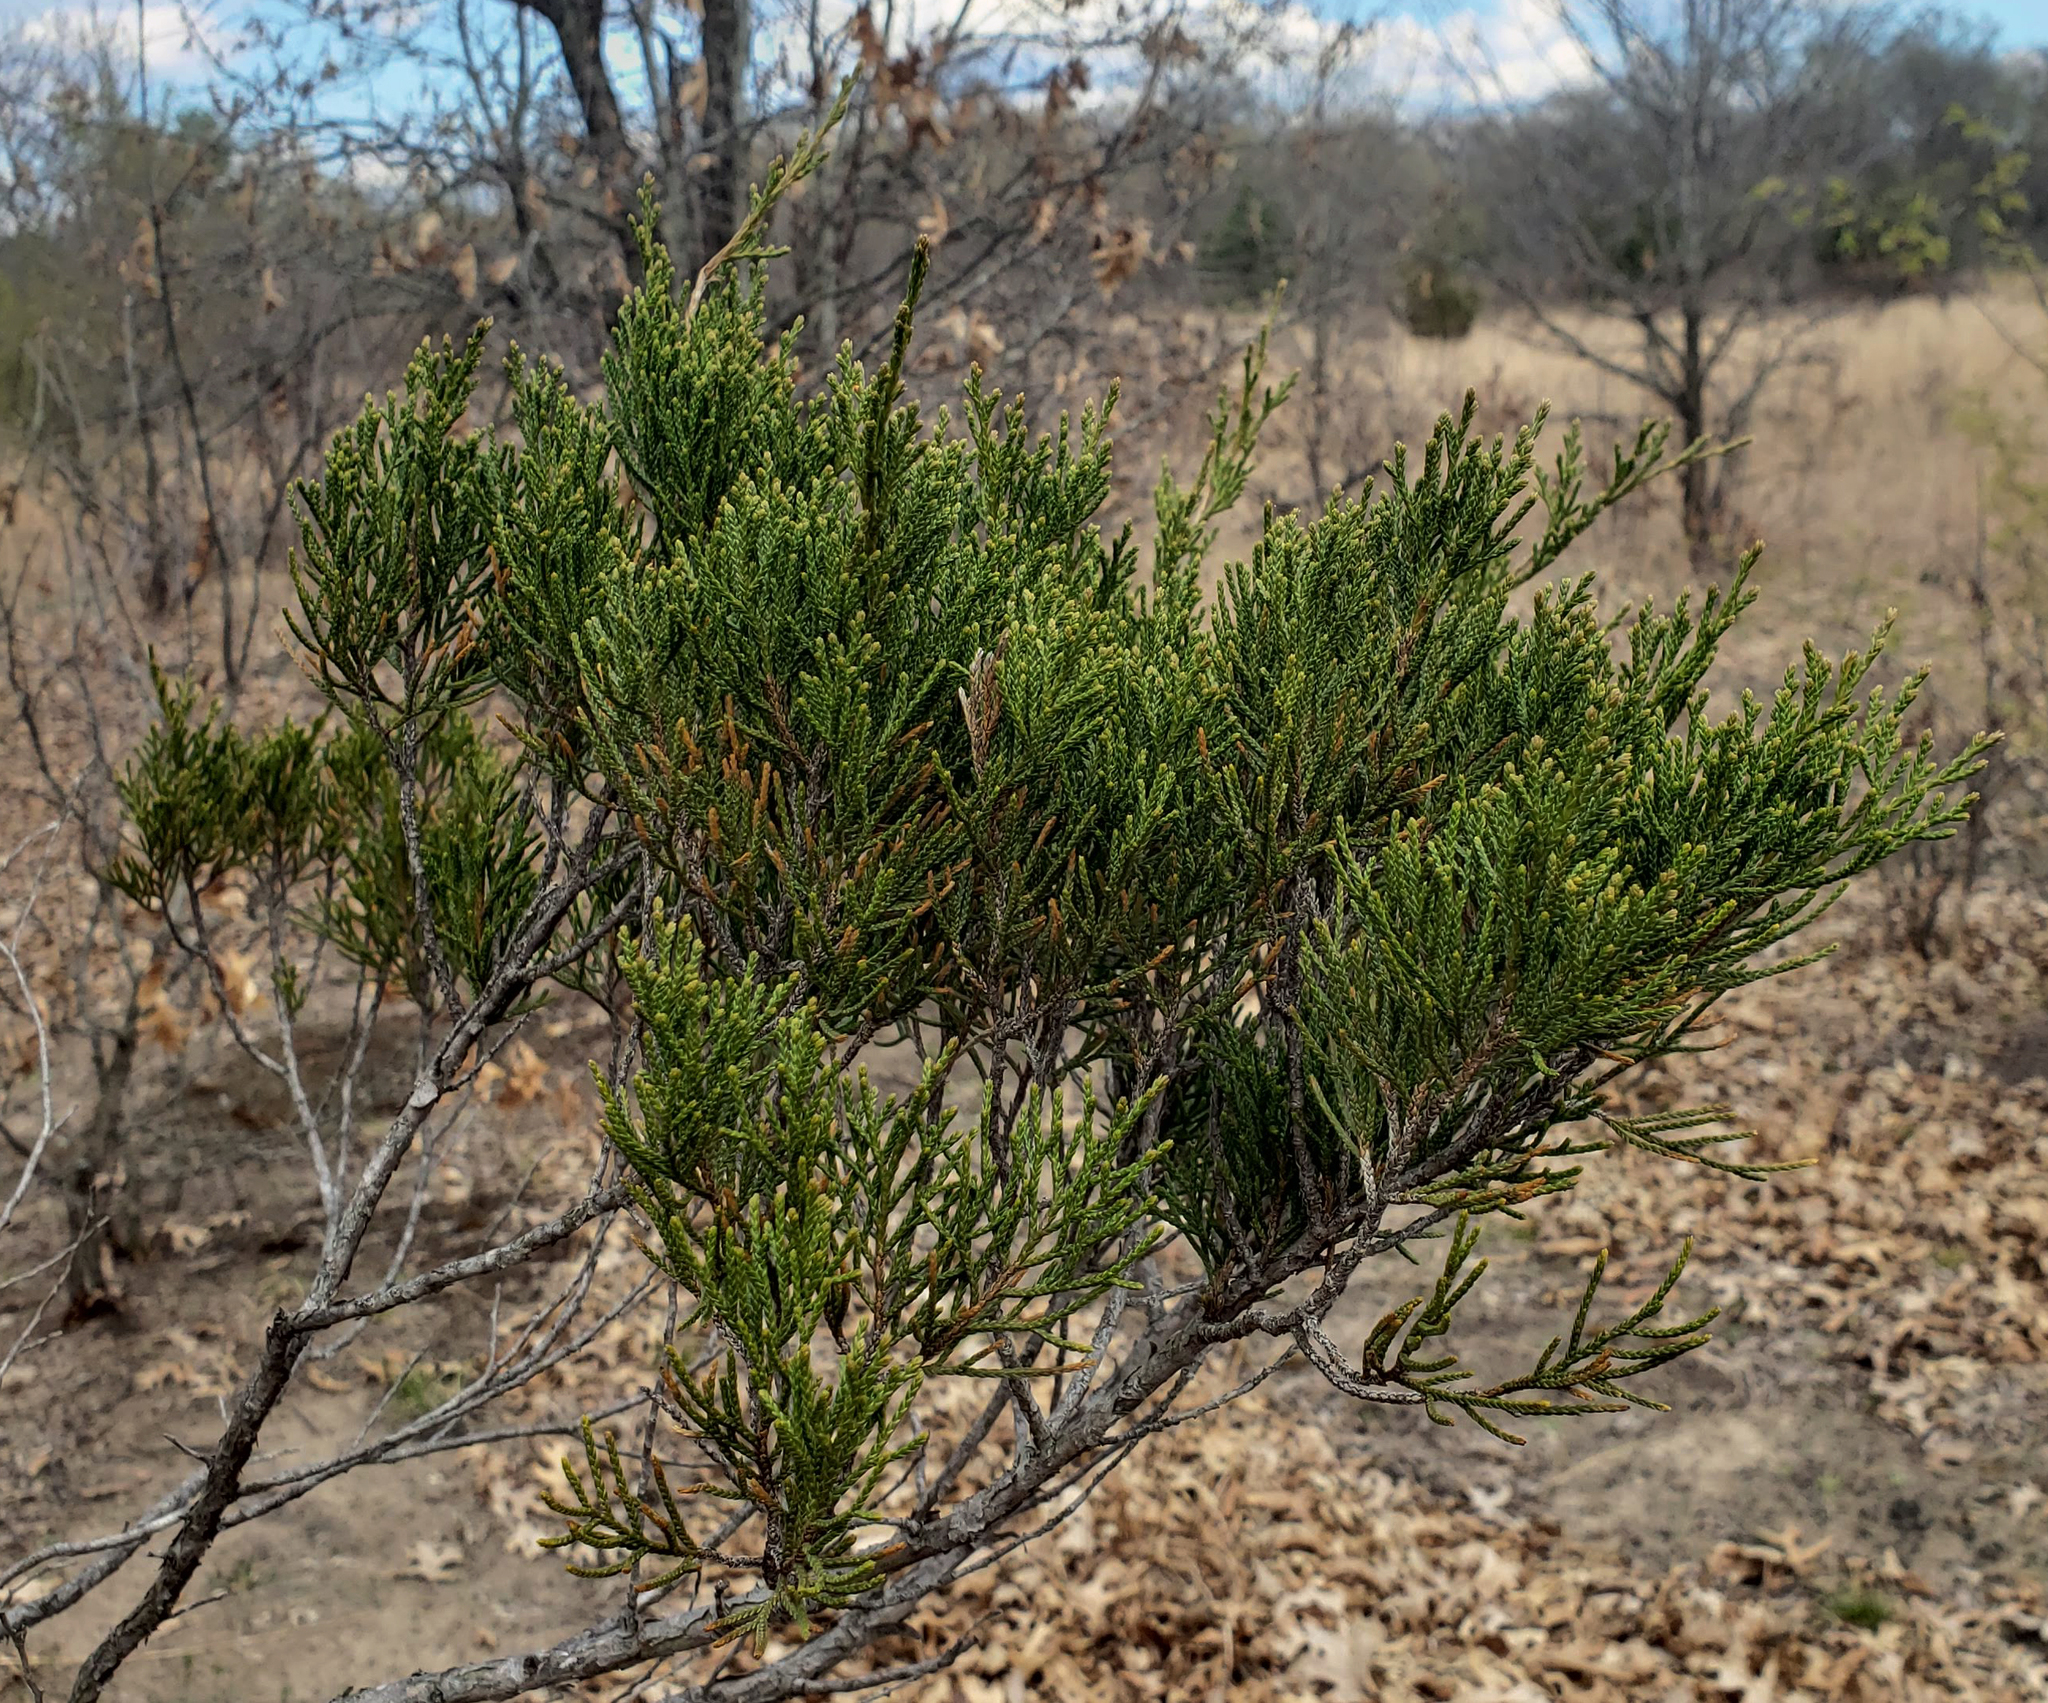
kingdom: Plantae
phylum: Tracheophyta
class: Pinopsida
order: Pinales
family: Cupressaceae
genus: Juniperus
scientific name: Juniperus virginiana
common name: Red juniper
